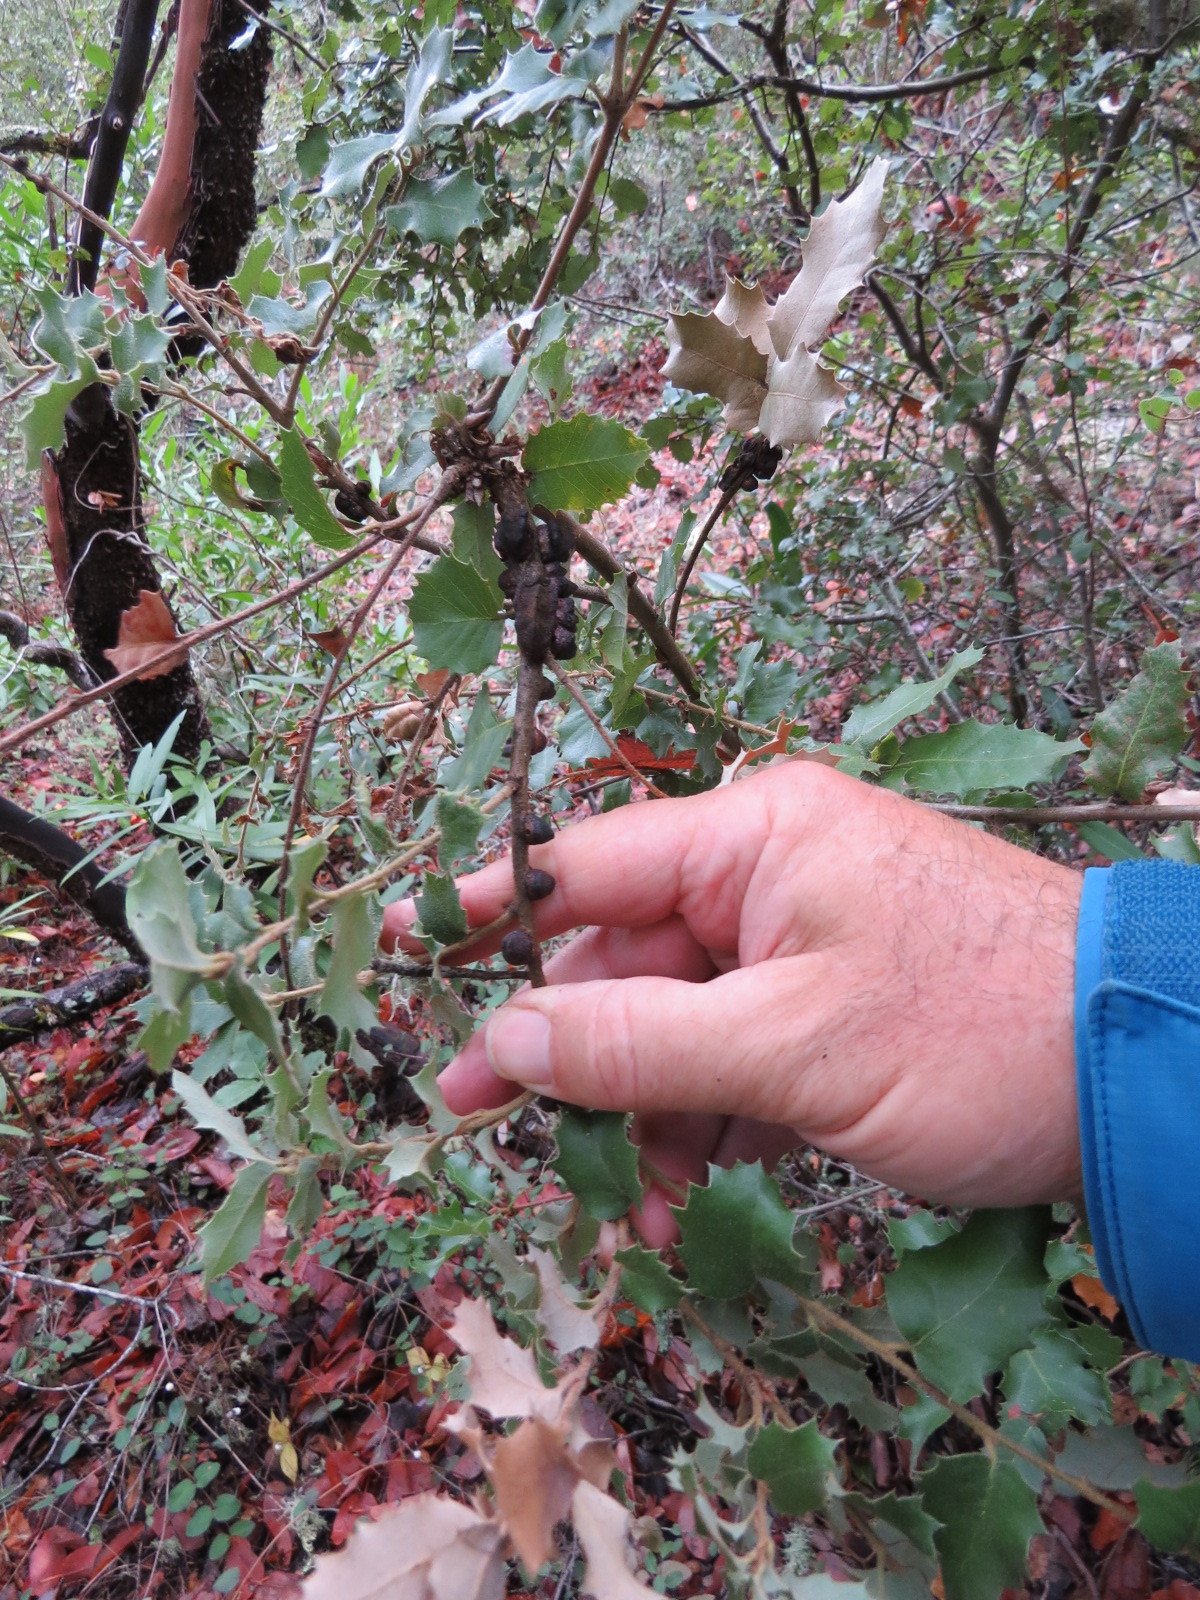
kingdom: Animalia
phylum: Arthropoda
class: Insecta
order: Hymenoptera
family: Cynipidae
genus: Disholandricus
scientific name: Disholandricus
